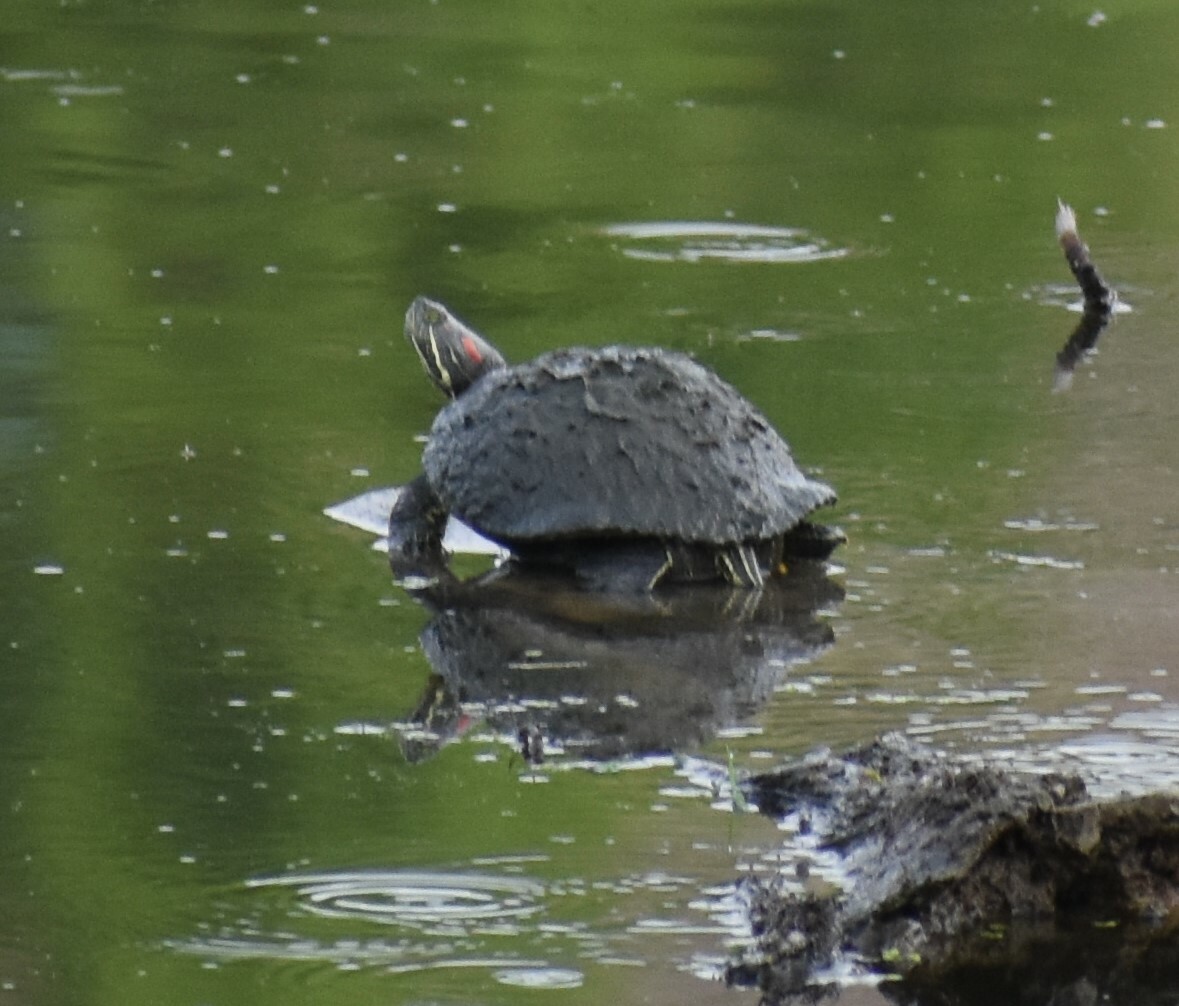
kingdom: Animalia
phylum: Chordata
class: Testudines
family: Emydidae
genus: Trachemys
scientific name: Trachemys scripta
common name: Slider
